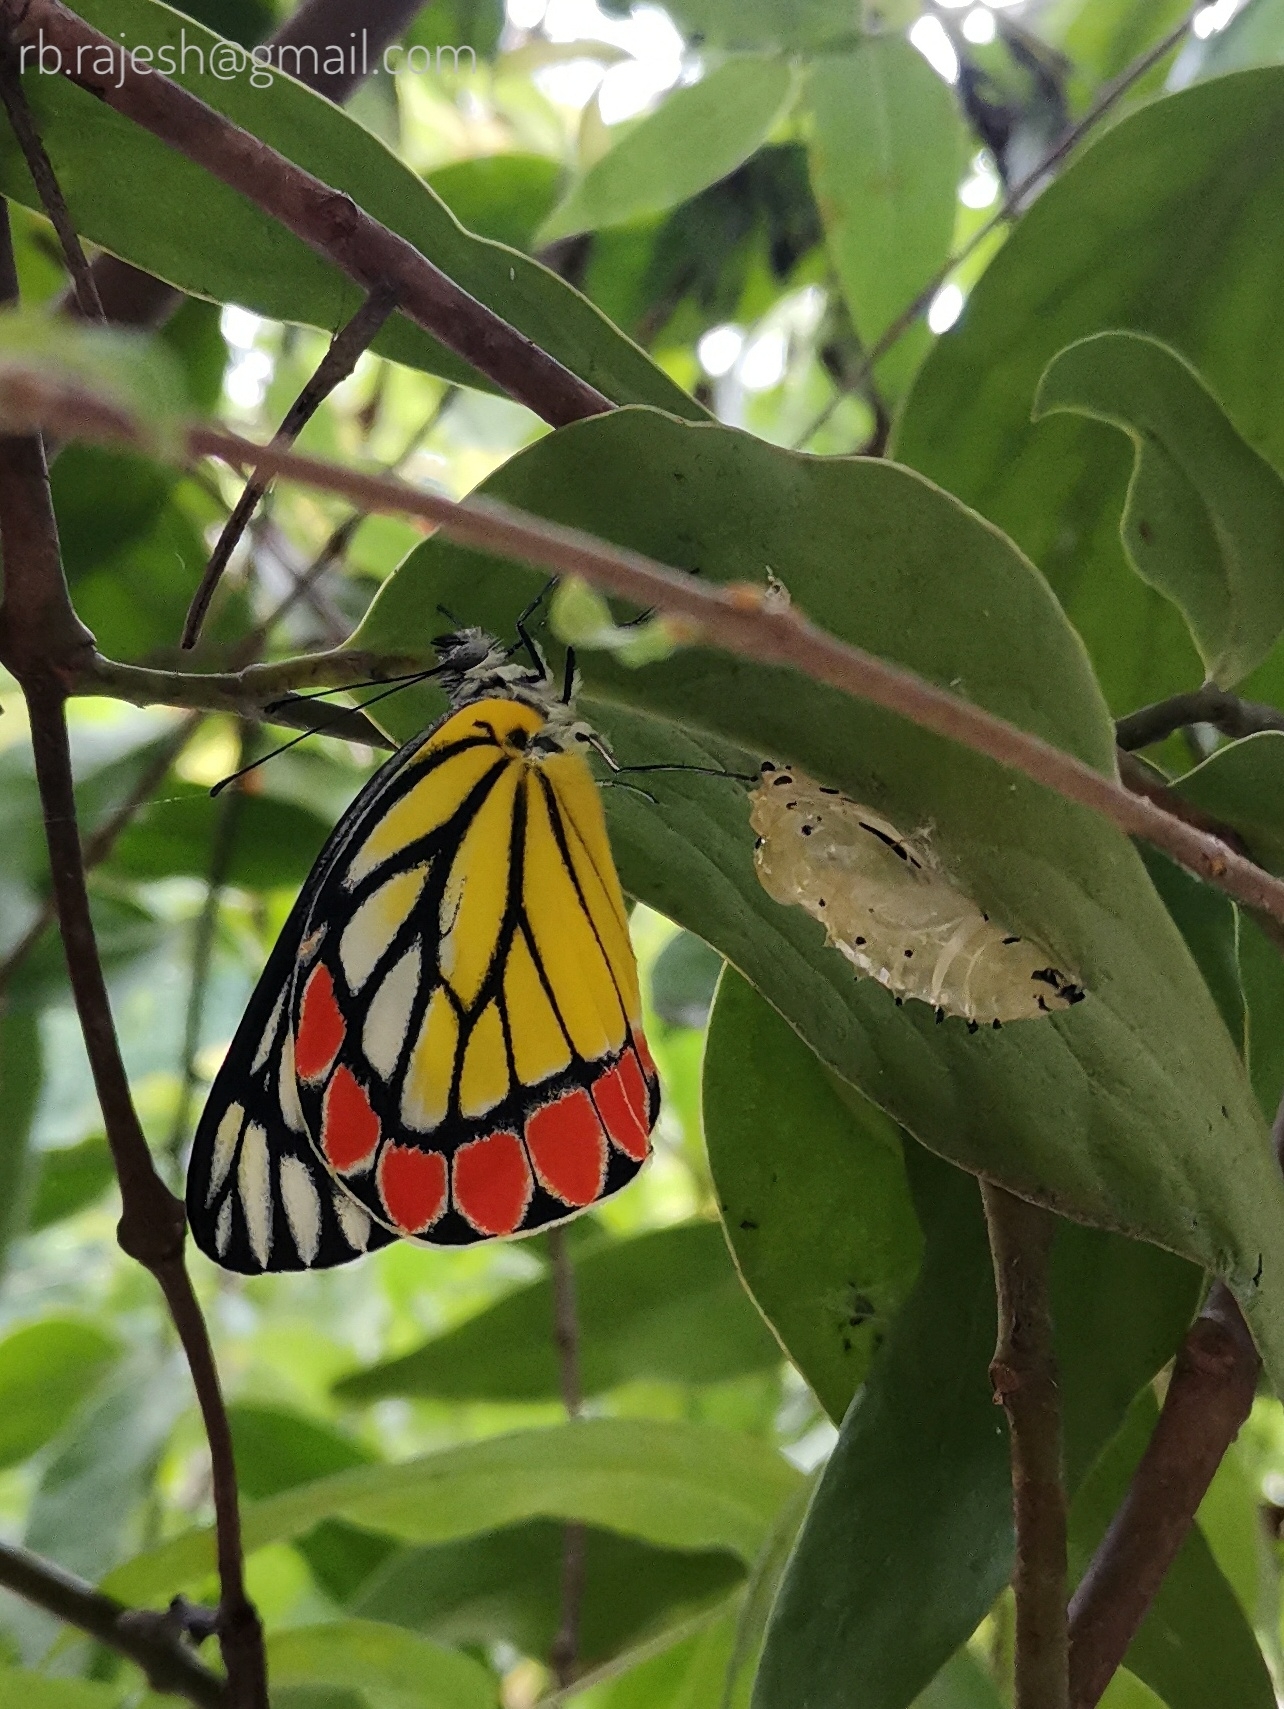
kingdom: Animalia
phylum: Arthropoda
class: Insecta
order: Lepidoptera
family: Pieridae
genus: Delias
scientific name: Delias eucharis
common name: Common jezebel
